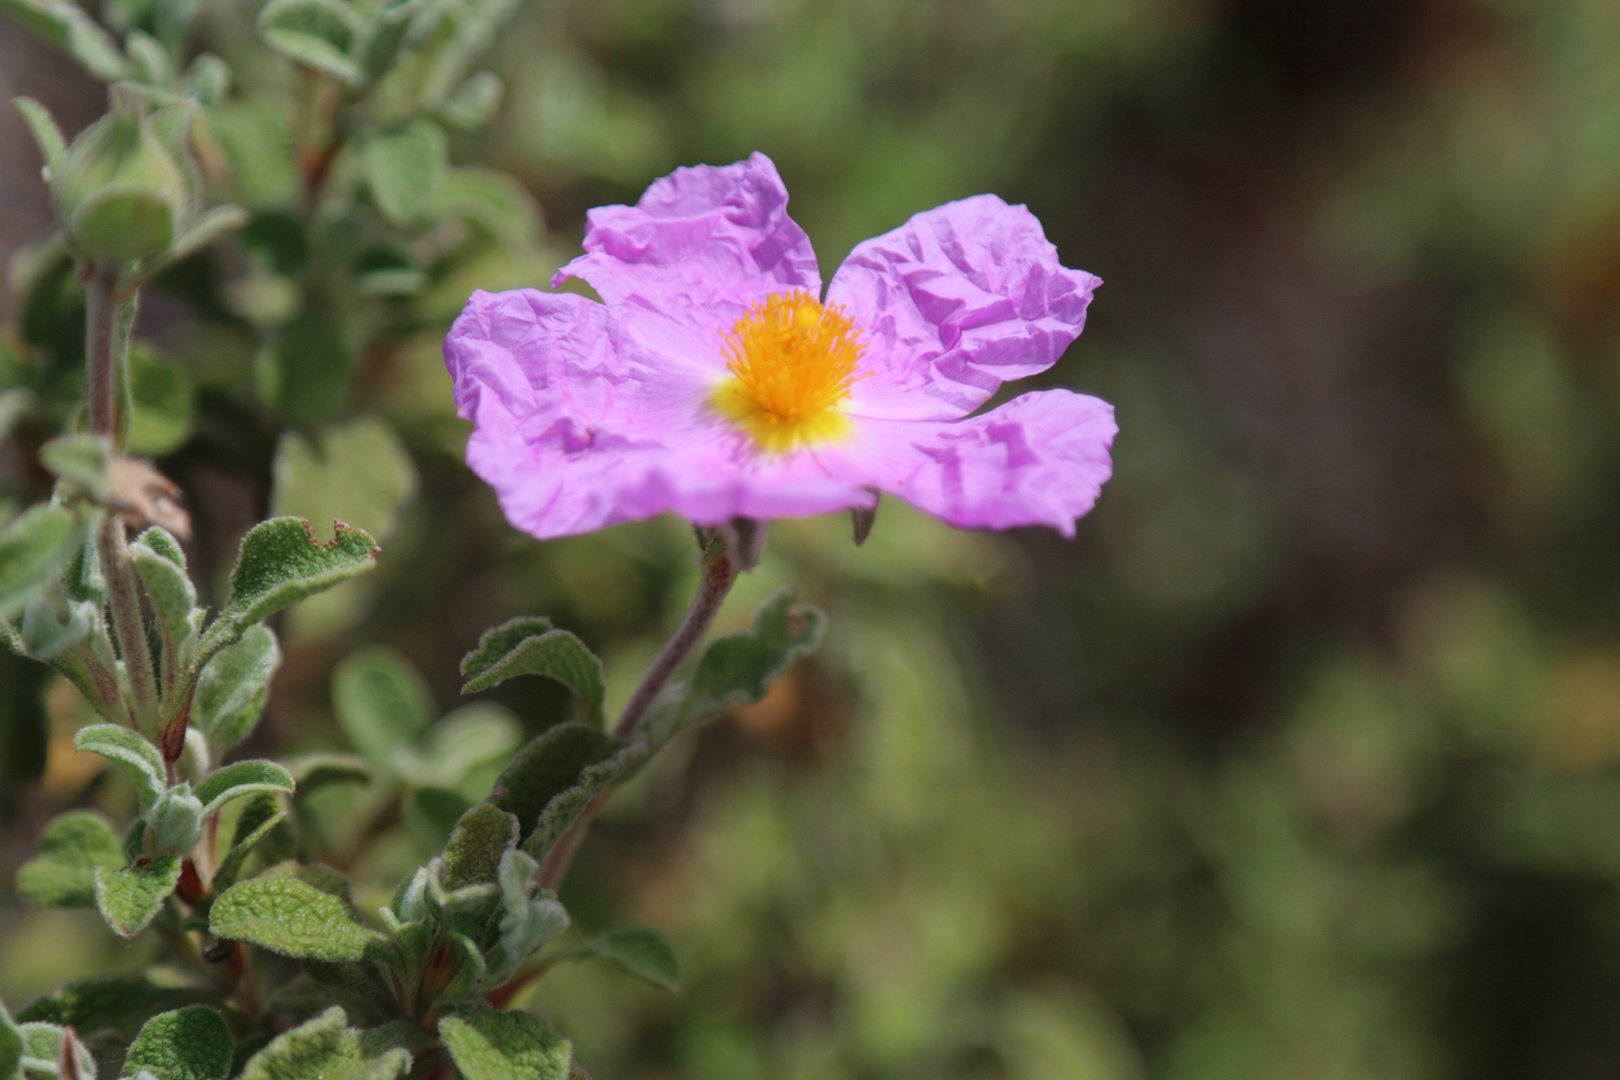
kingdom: Plantae
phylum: Tracheophyta
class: Magnoliopsida
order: Malvales
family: Cistaceae
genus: Cistus
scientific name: Cistus creticus
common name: Cretan rockrose
